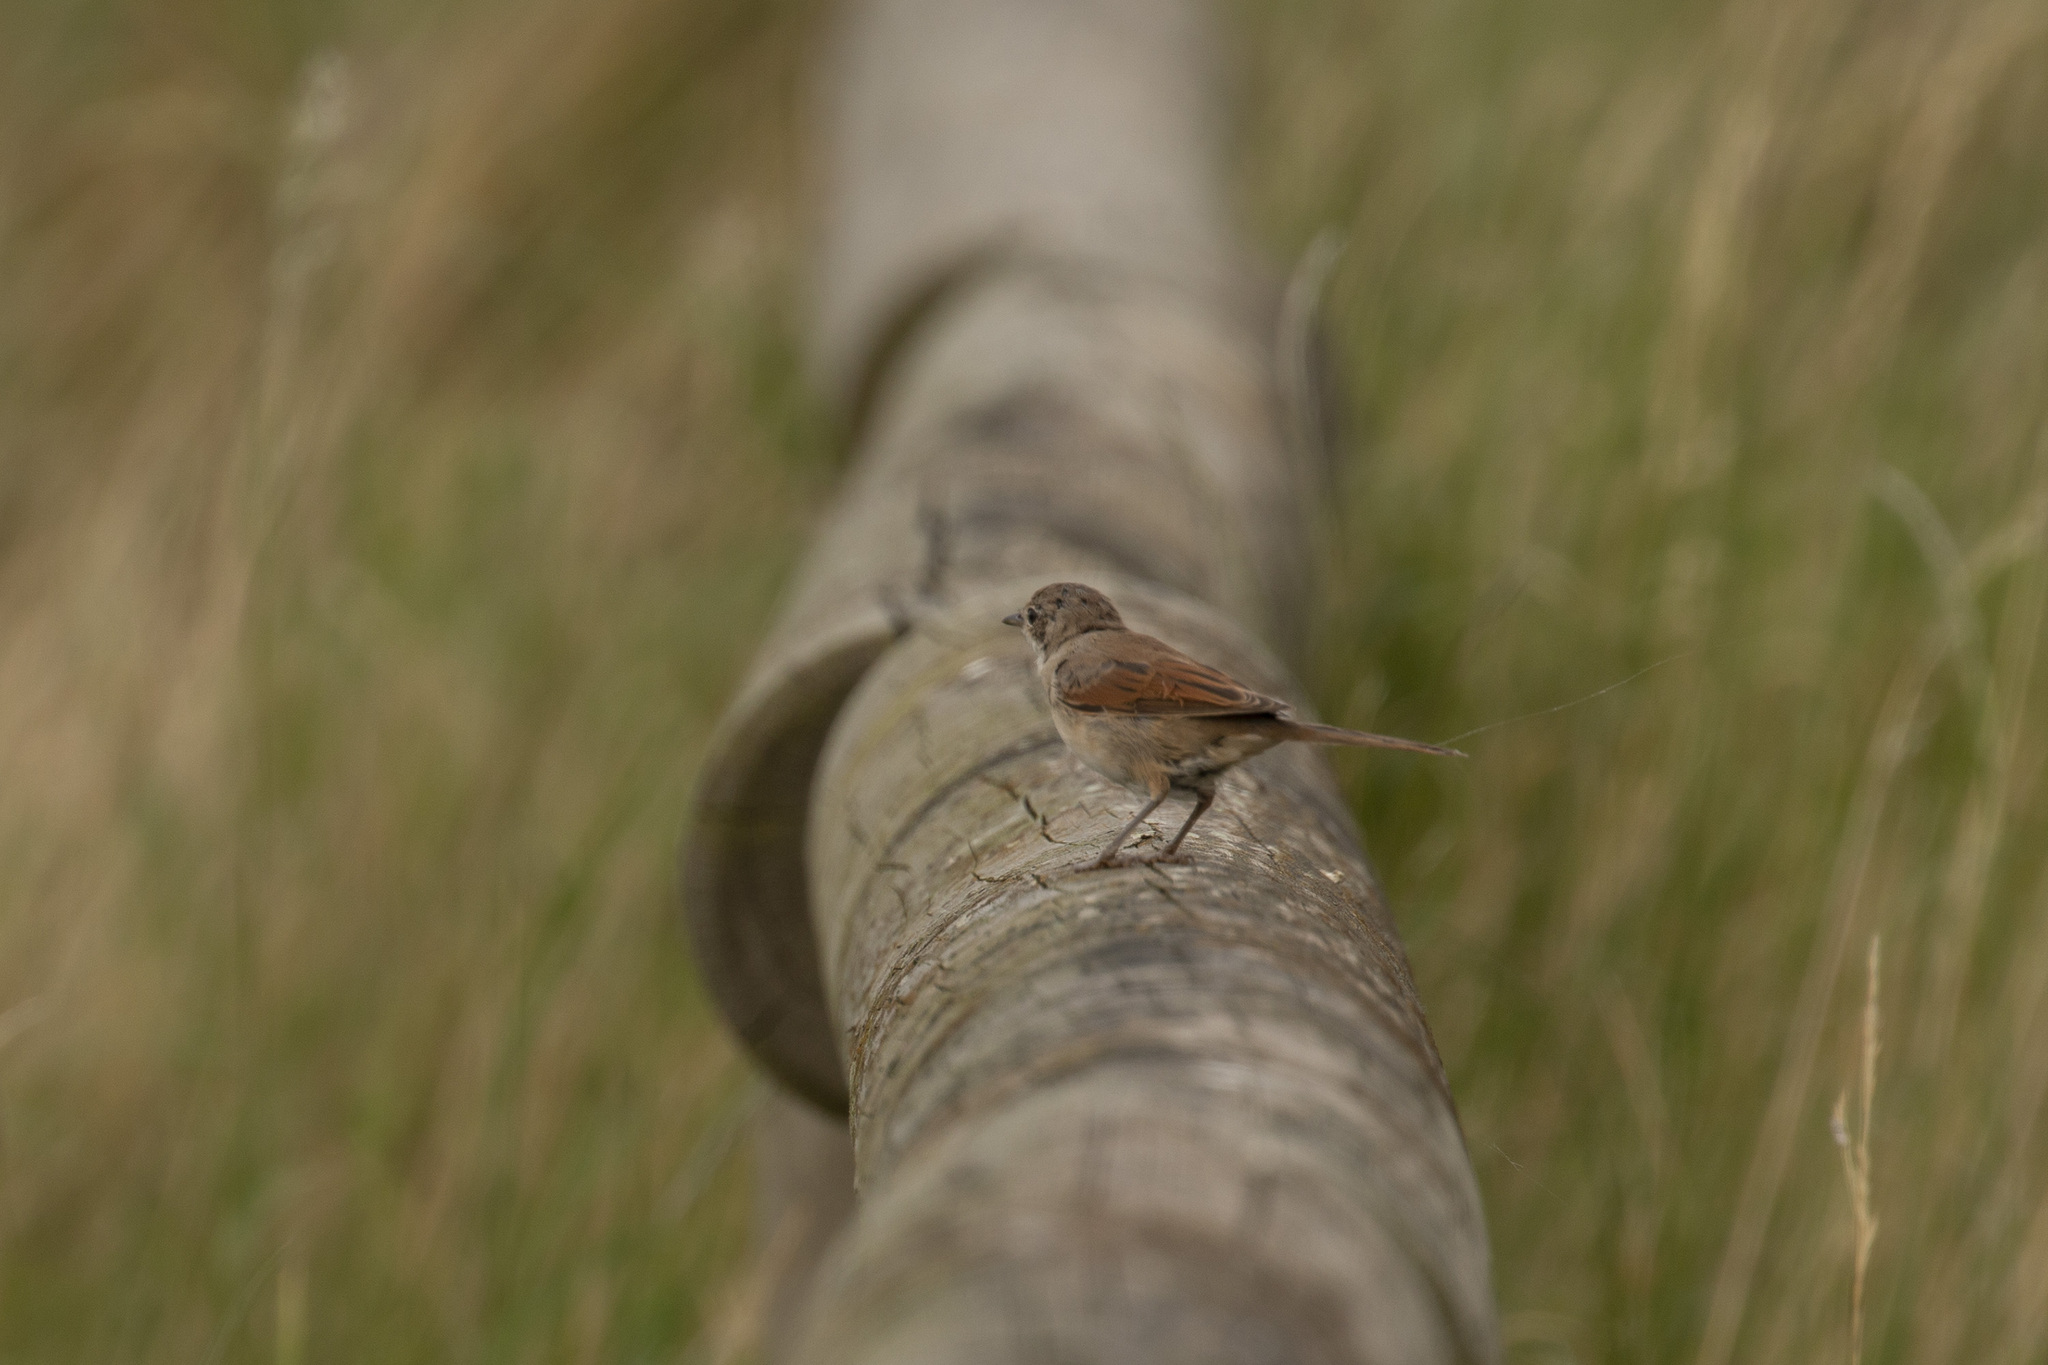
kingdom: Animalia
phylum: Chordata
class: Aves
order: Passeriformes
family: Sylviidae
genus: Sylvia
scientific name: Sylvia communis
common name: Common whitethroat
